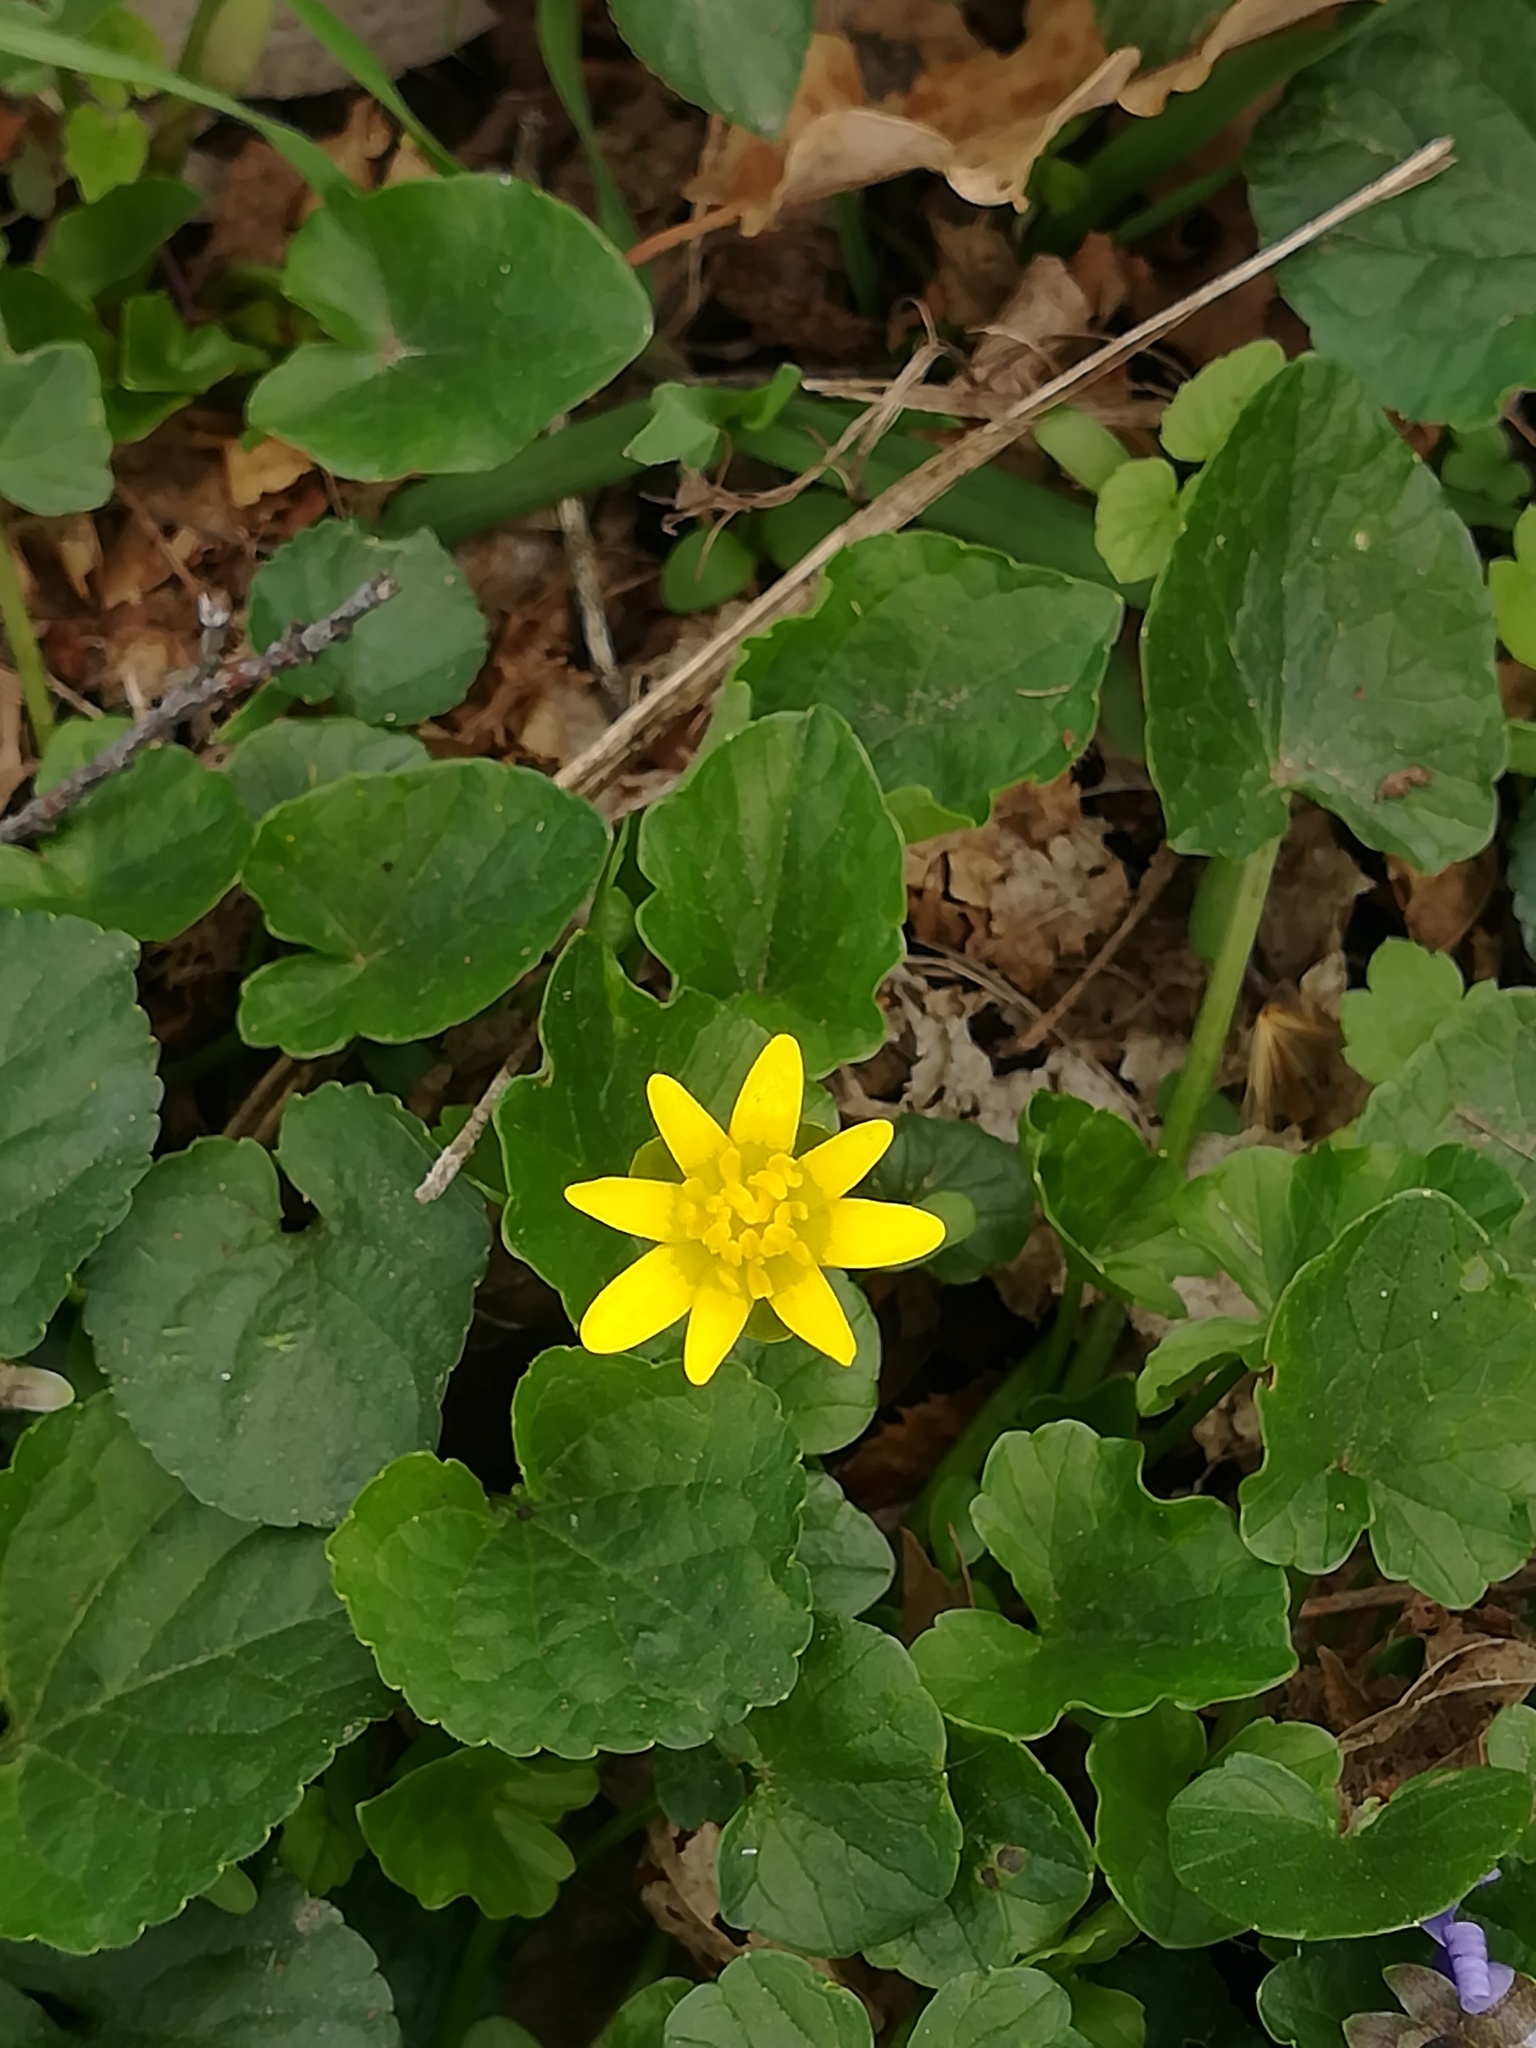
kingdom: Plantae
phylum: Tracheophyta
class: Magnoliopsida
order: Ranunculales
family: Ranunculaceae
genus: Ficaria
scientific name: Ficaria verna
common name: Lesser celandine
